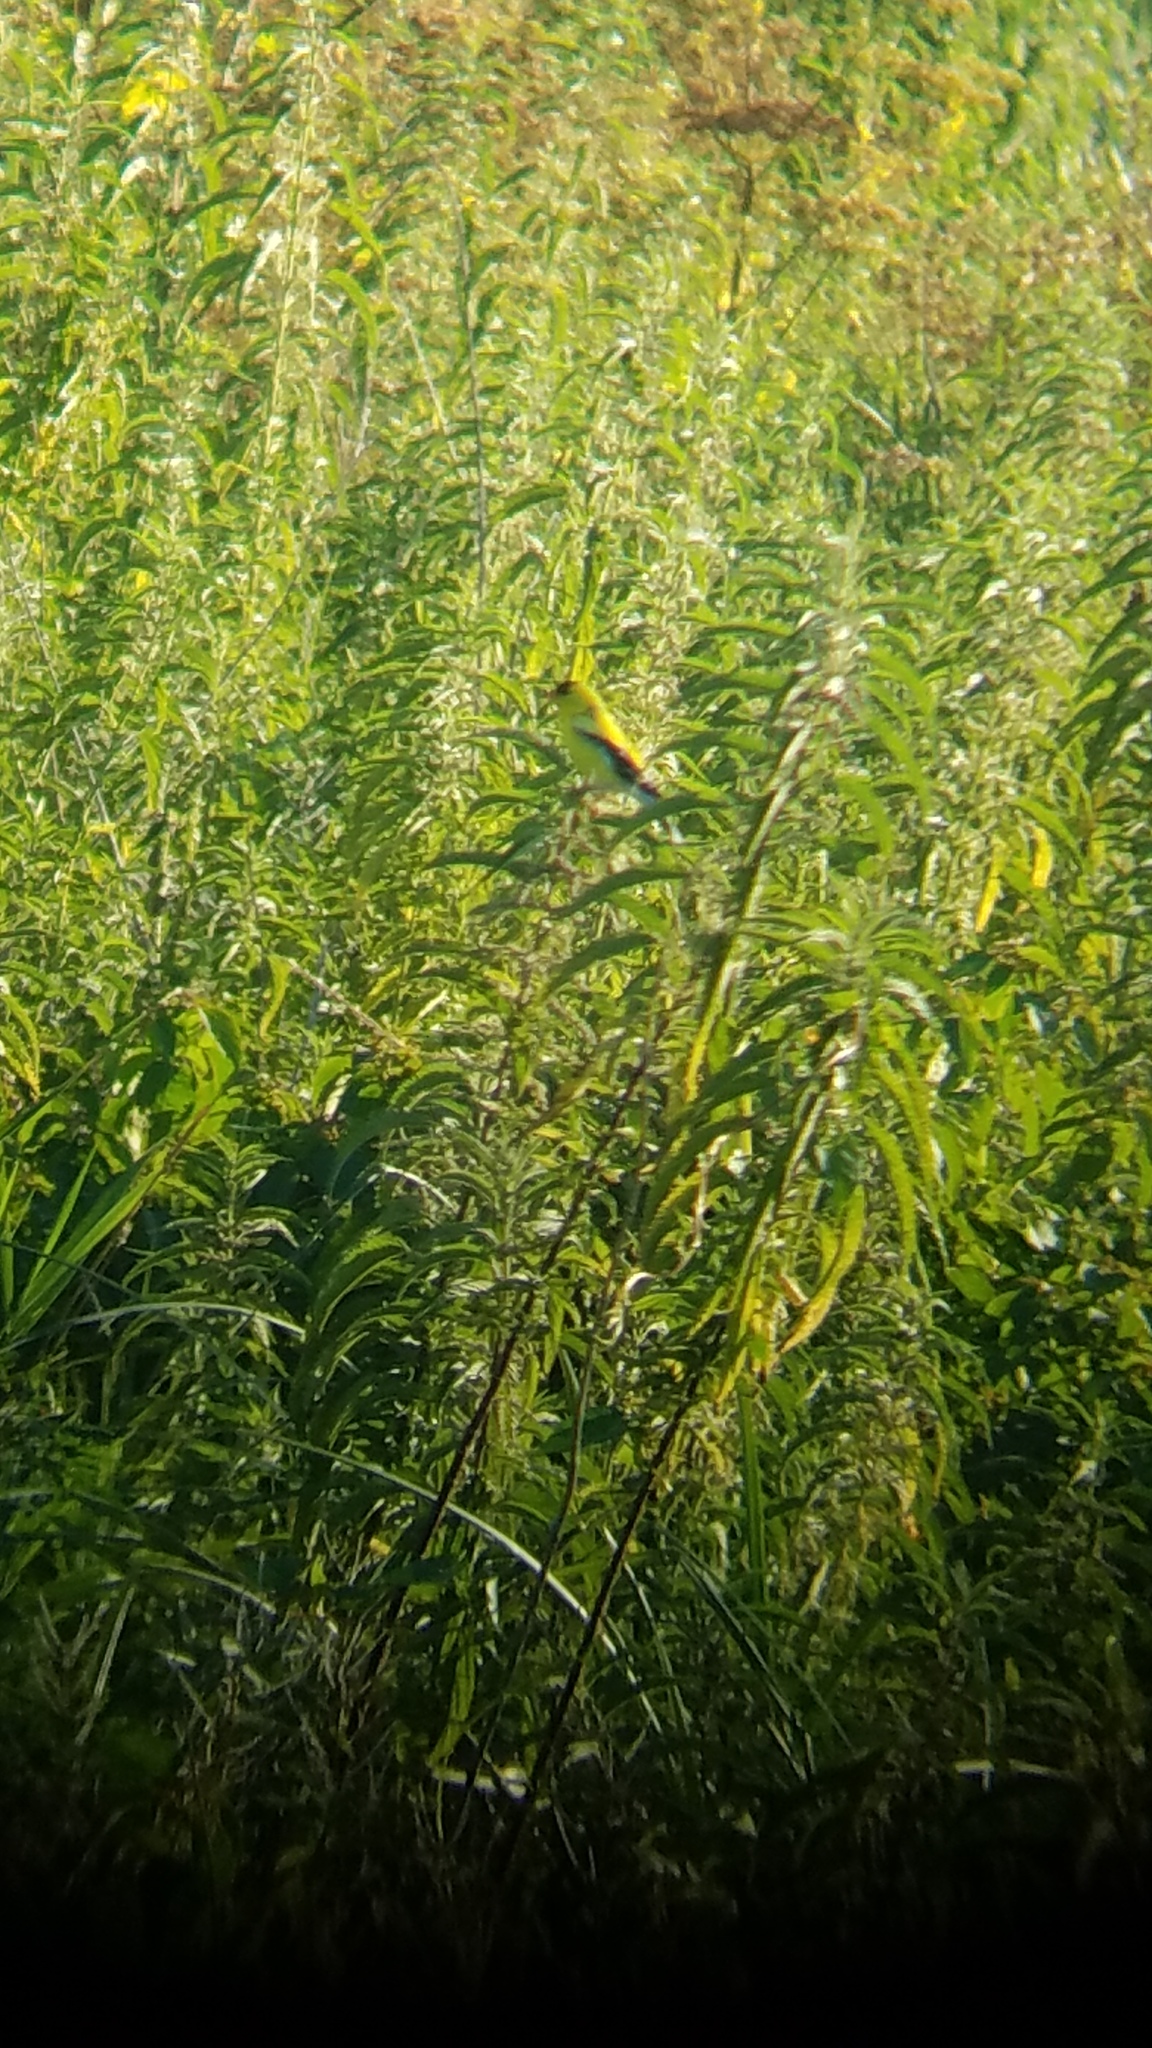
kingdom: Animalia
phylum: Chordata
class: Aves
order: Passeriformes
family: Fringillidae
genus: Spinus
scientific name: Spinus tristis
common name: American goldfinch
